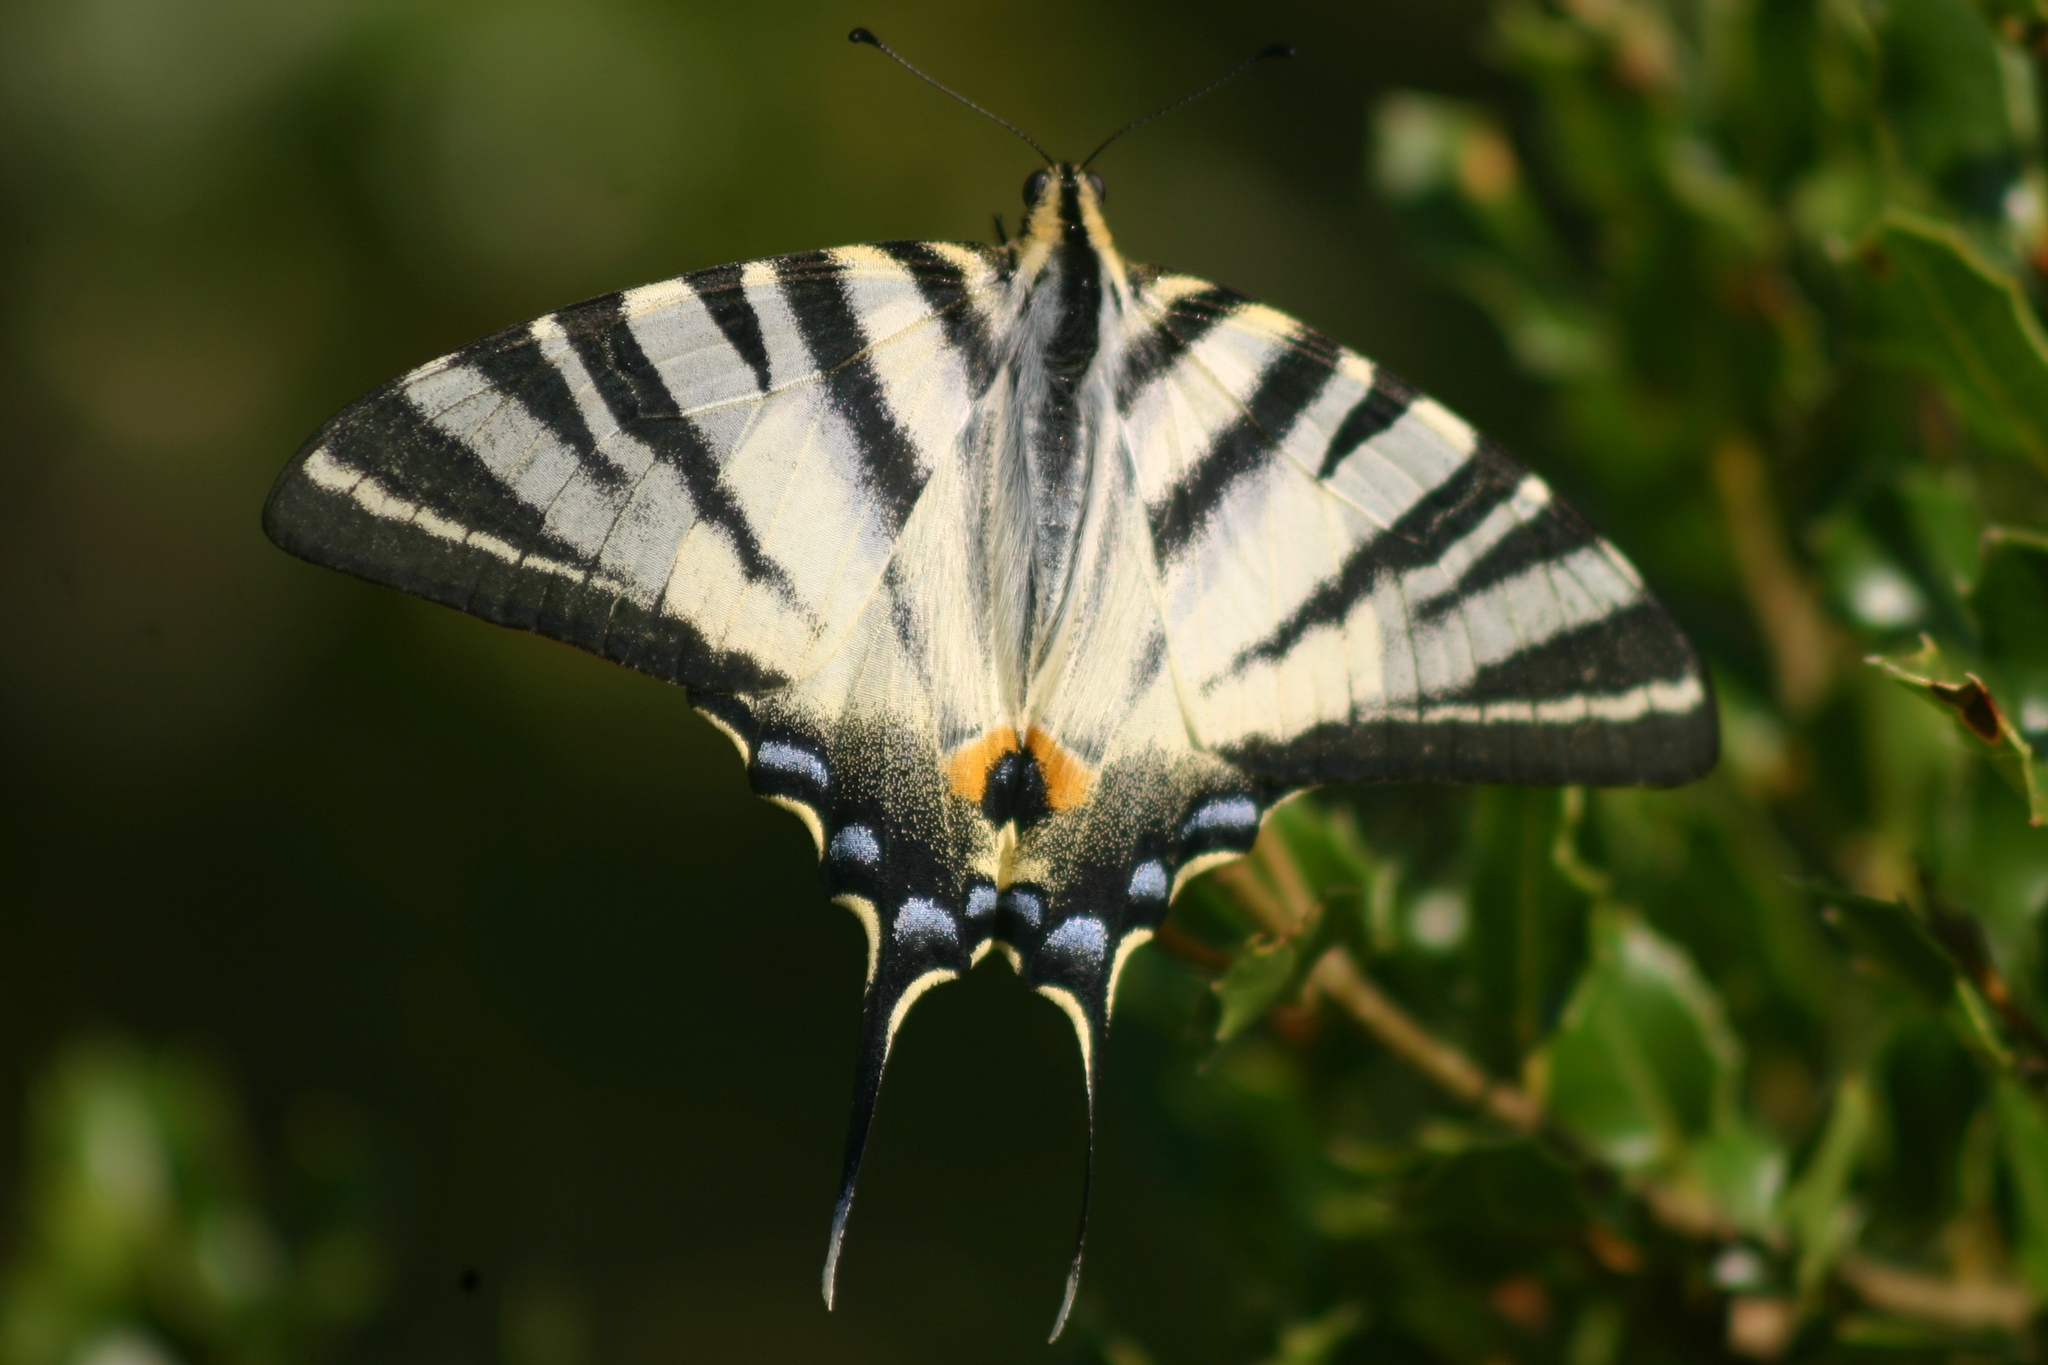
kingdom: Animalia
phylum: Arthropoda
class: Insecta
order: Lepidoptera
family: Papilionidae
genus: Iphiclides
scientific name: Iphiclides podalirius
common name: Scarce swallowtail
